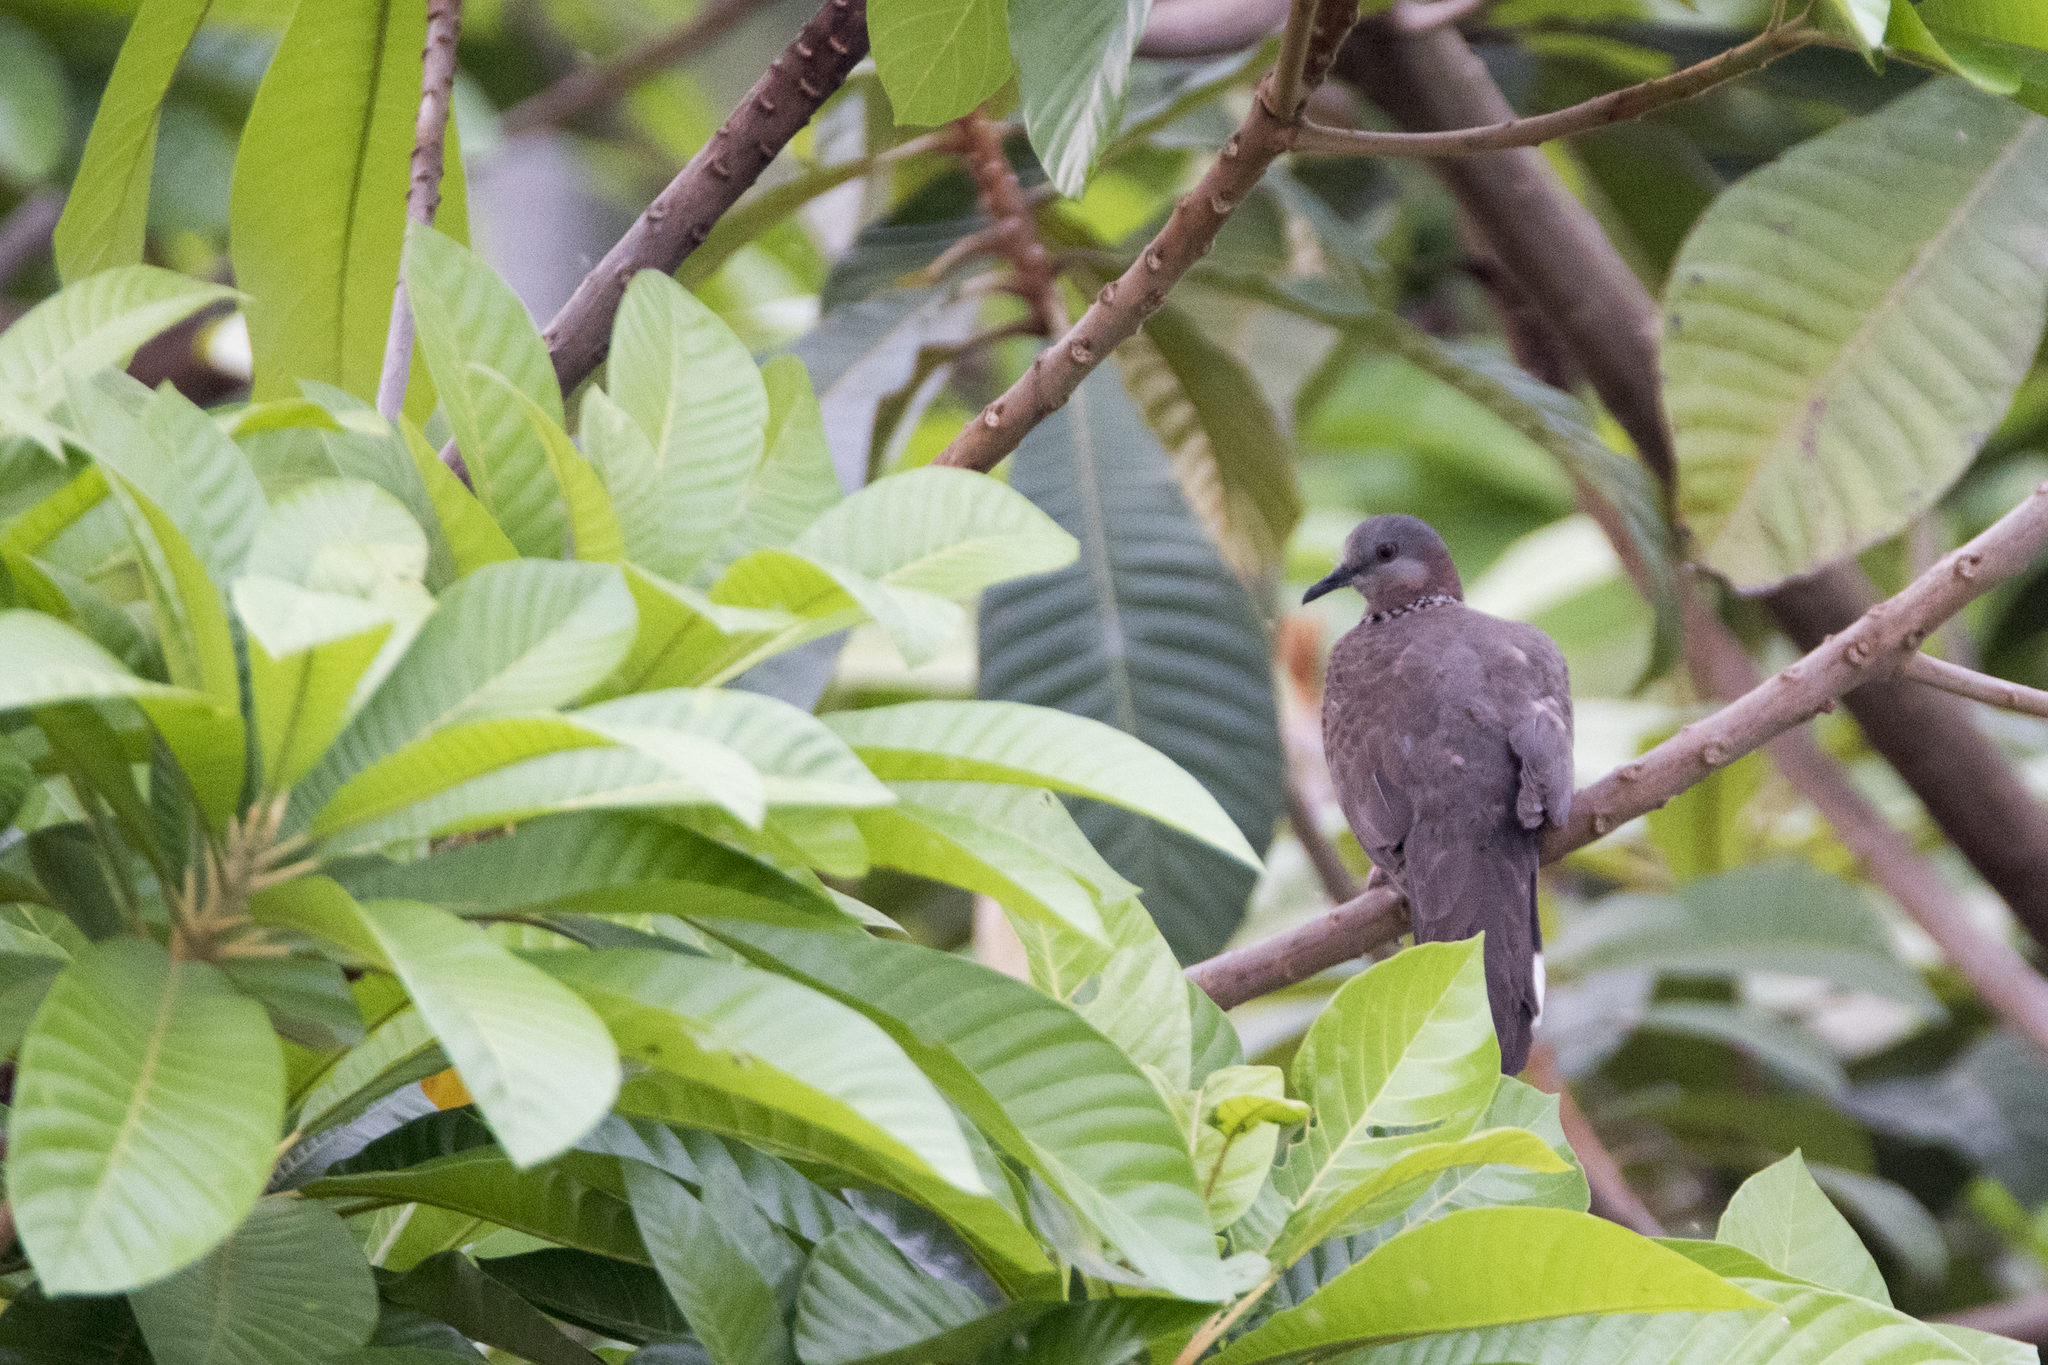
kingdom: Animalia
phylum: Chordata
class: Aves
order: Columbiformes
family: Columbidae
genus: Spilopelia
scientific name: Spilopelia chinensis
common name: Spotted dove
